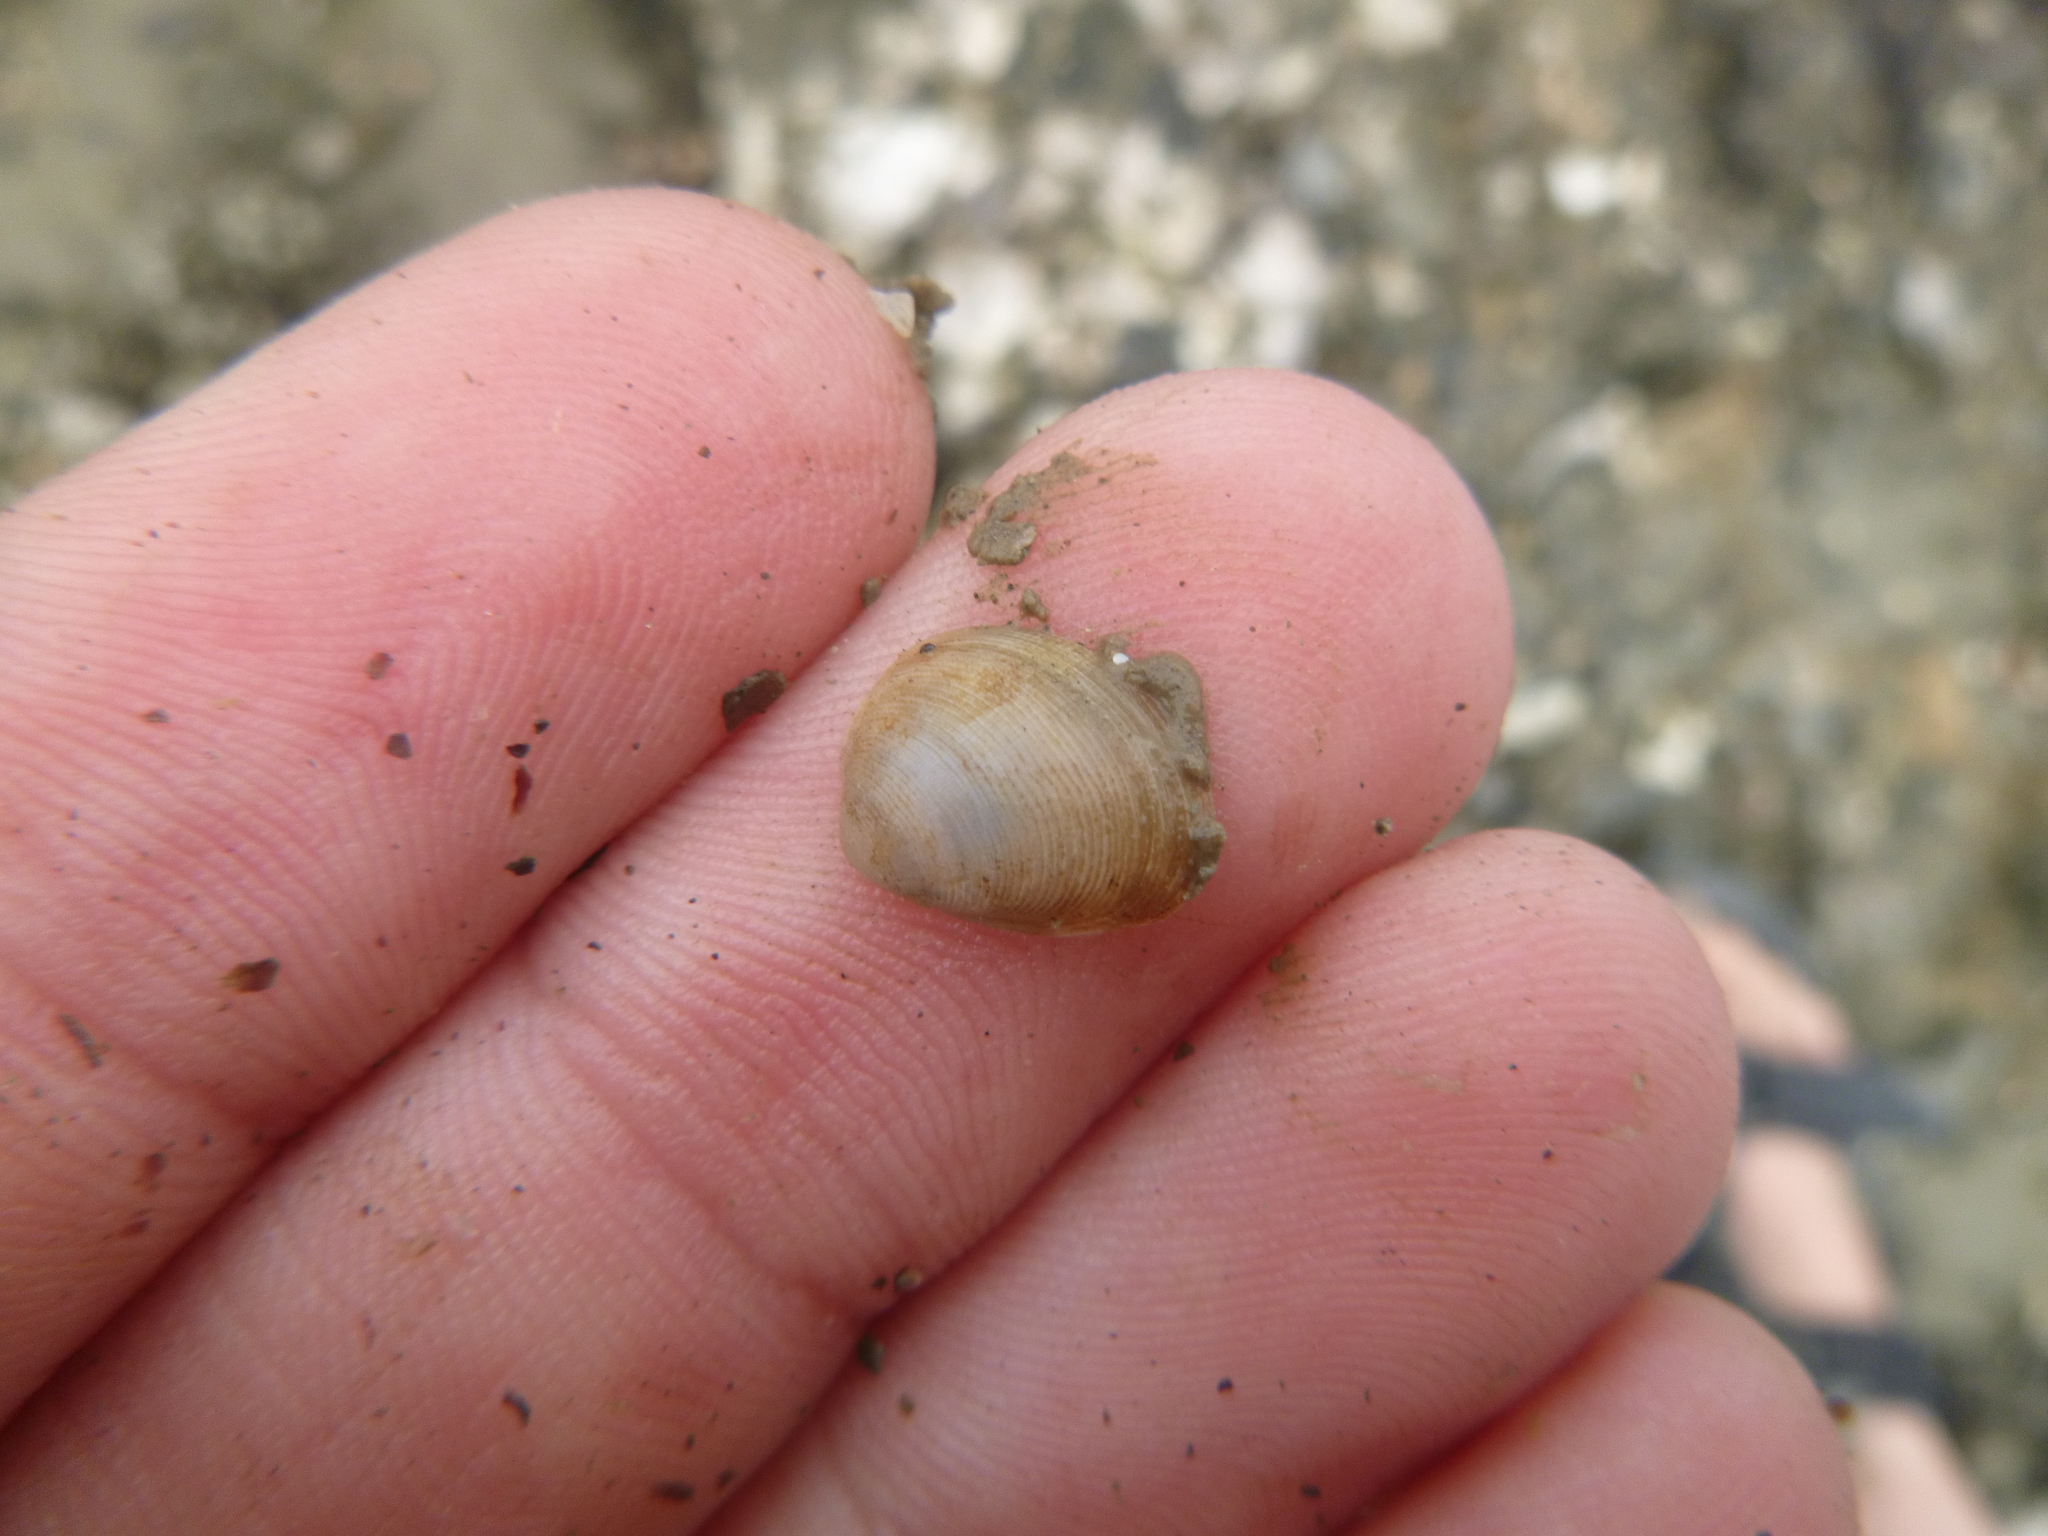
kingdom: Animalia
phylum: Mollusca
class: Bivalvia
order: Nuculida
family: Nuculidae
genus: Linucula
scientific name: Linucula hartvigiana
